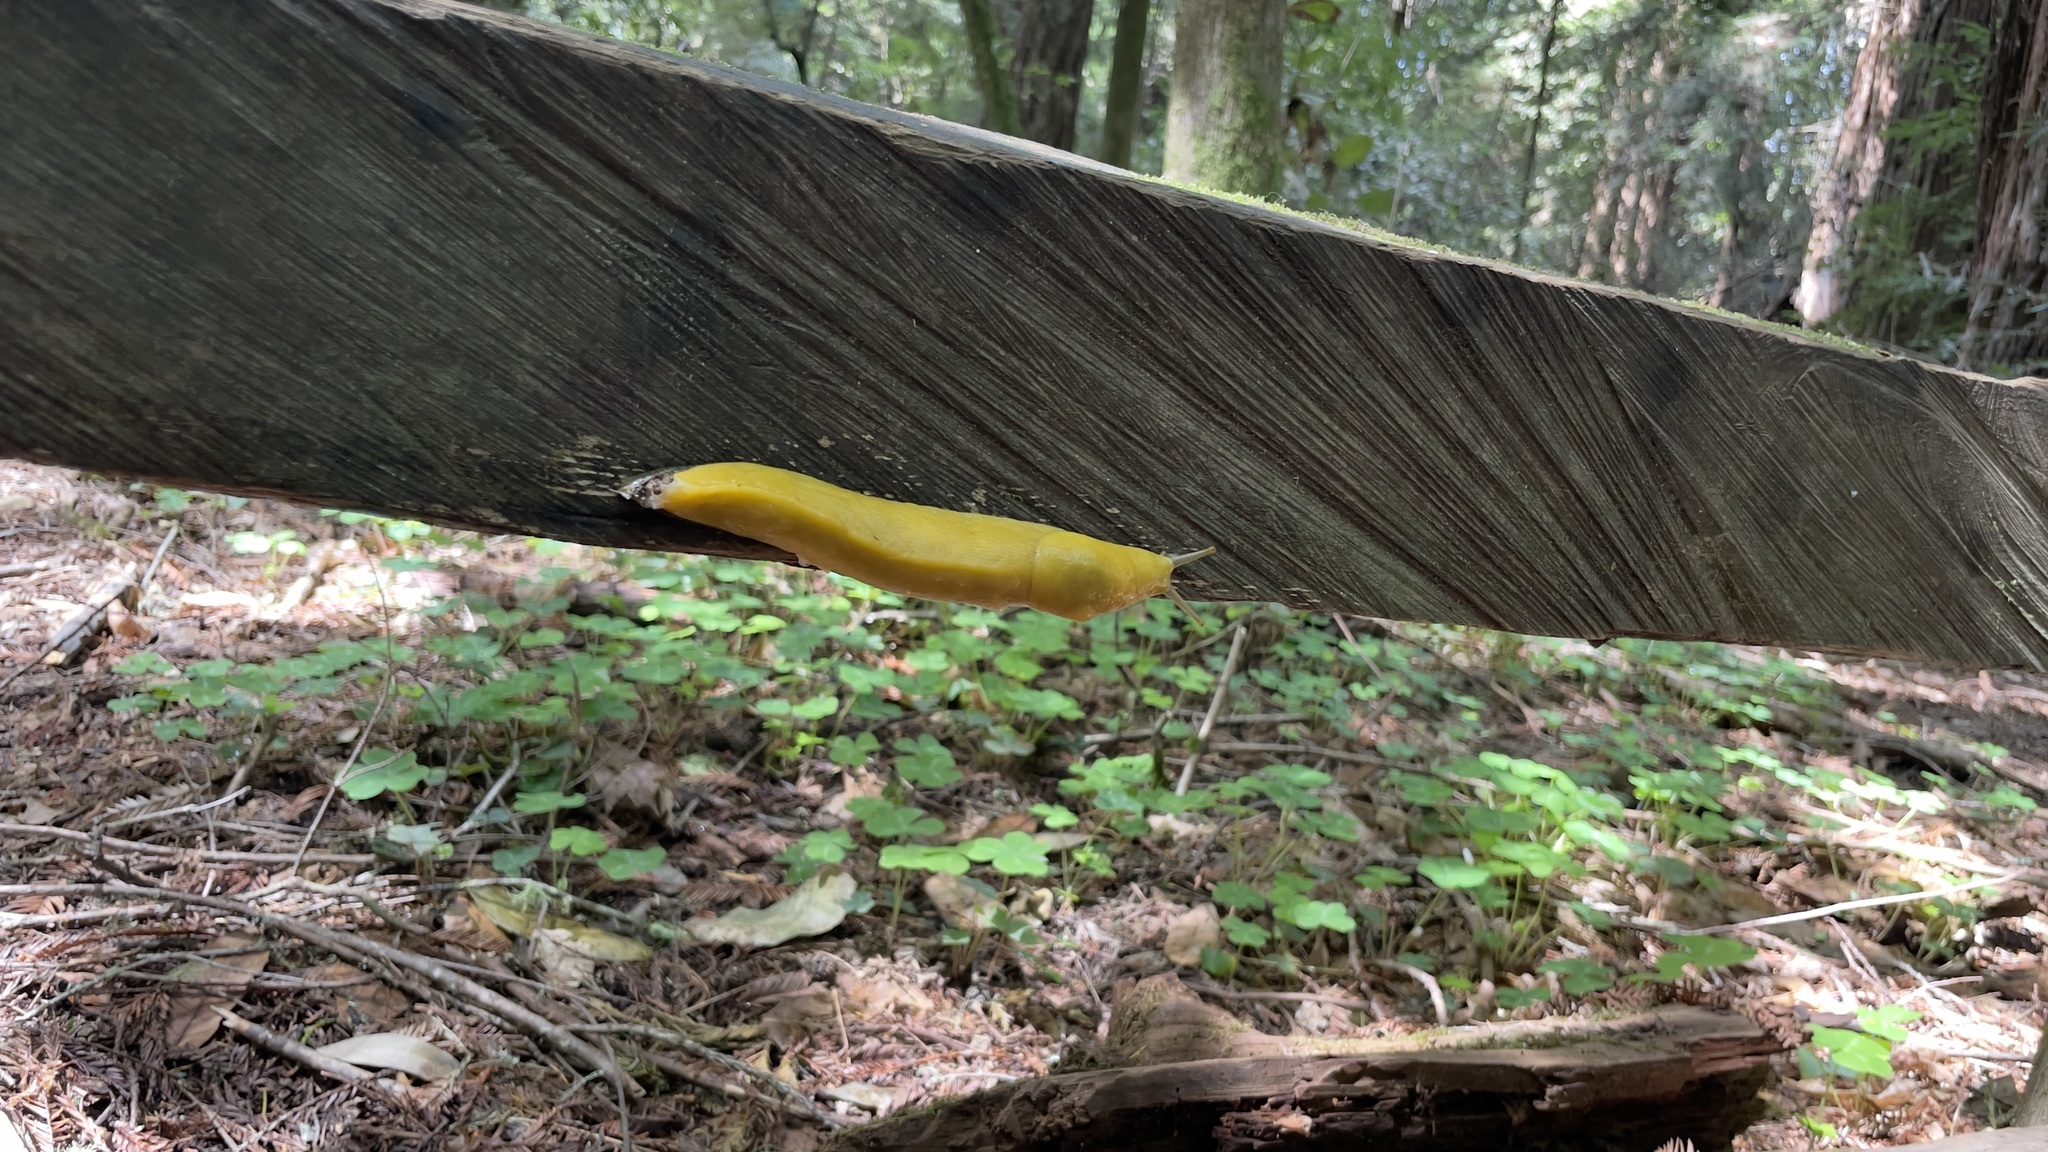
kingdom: Animalia
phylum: Mollusca
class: Gastropoda
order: Stylommatophora
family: Ariolimacidae
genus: Ariolimax
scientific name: Ariolimax dolichophallus
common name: Slender banana slug
